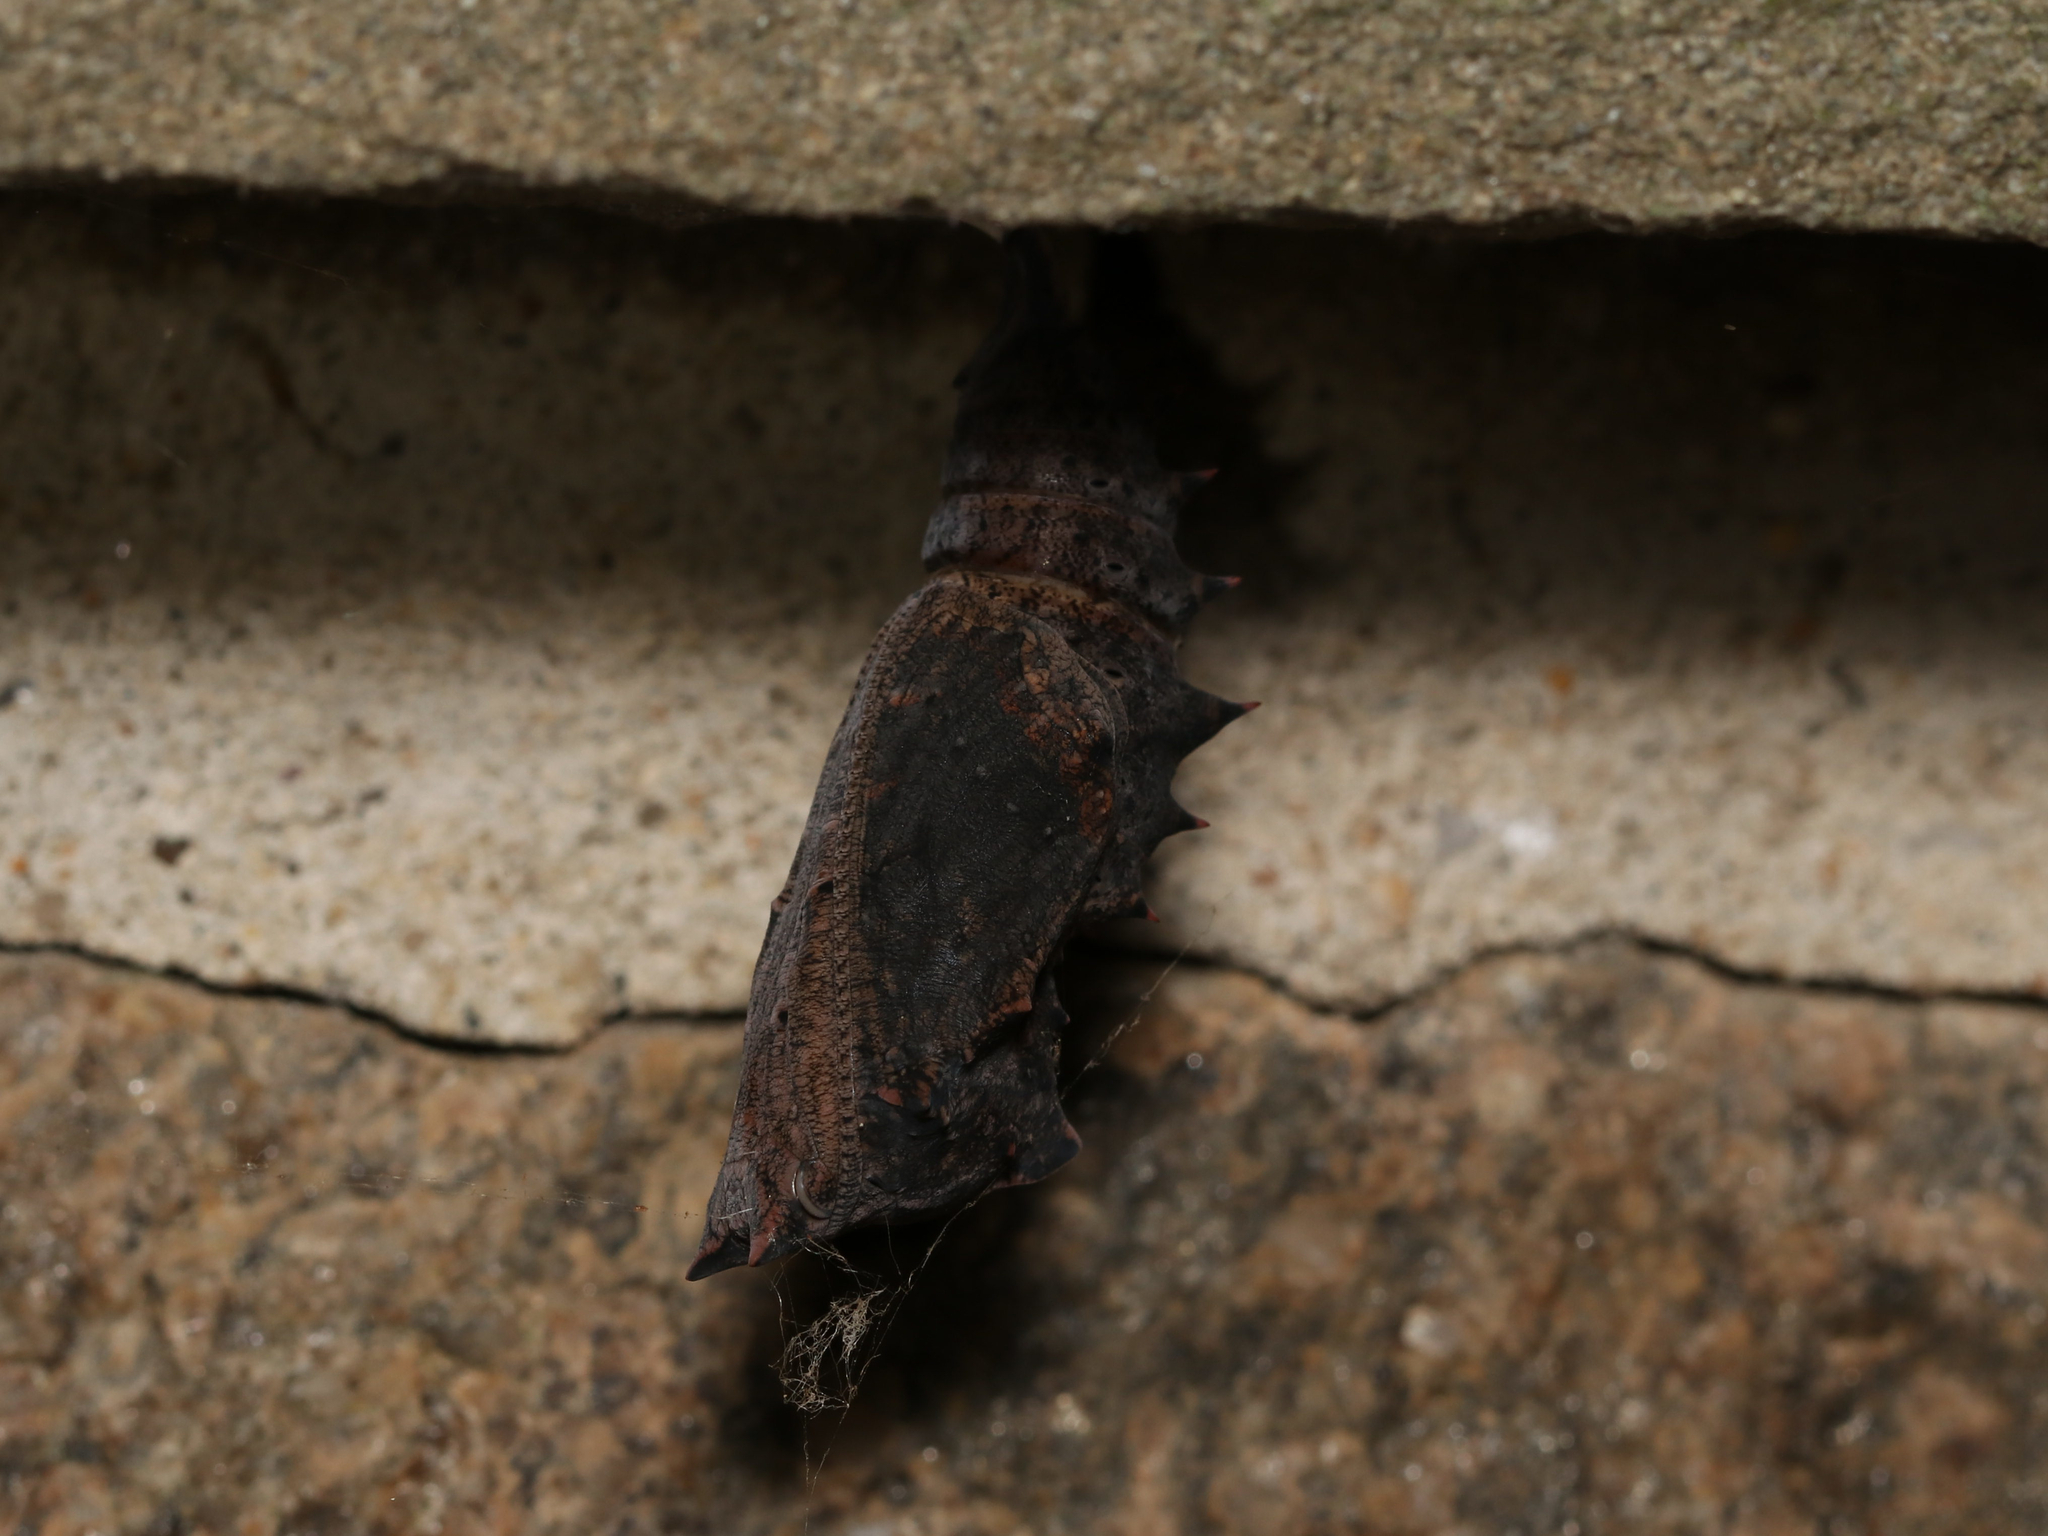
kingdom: Animalia
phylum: Arthropoda
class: Insecta
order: Lepidoptera
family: Nymphalidae
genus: Nymphalis
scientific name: Nymphalis antiopa
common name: Camberwell beauty
